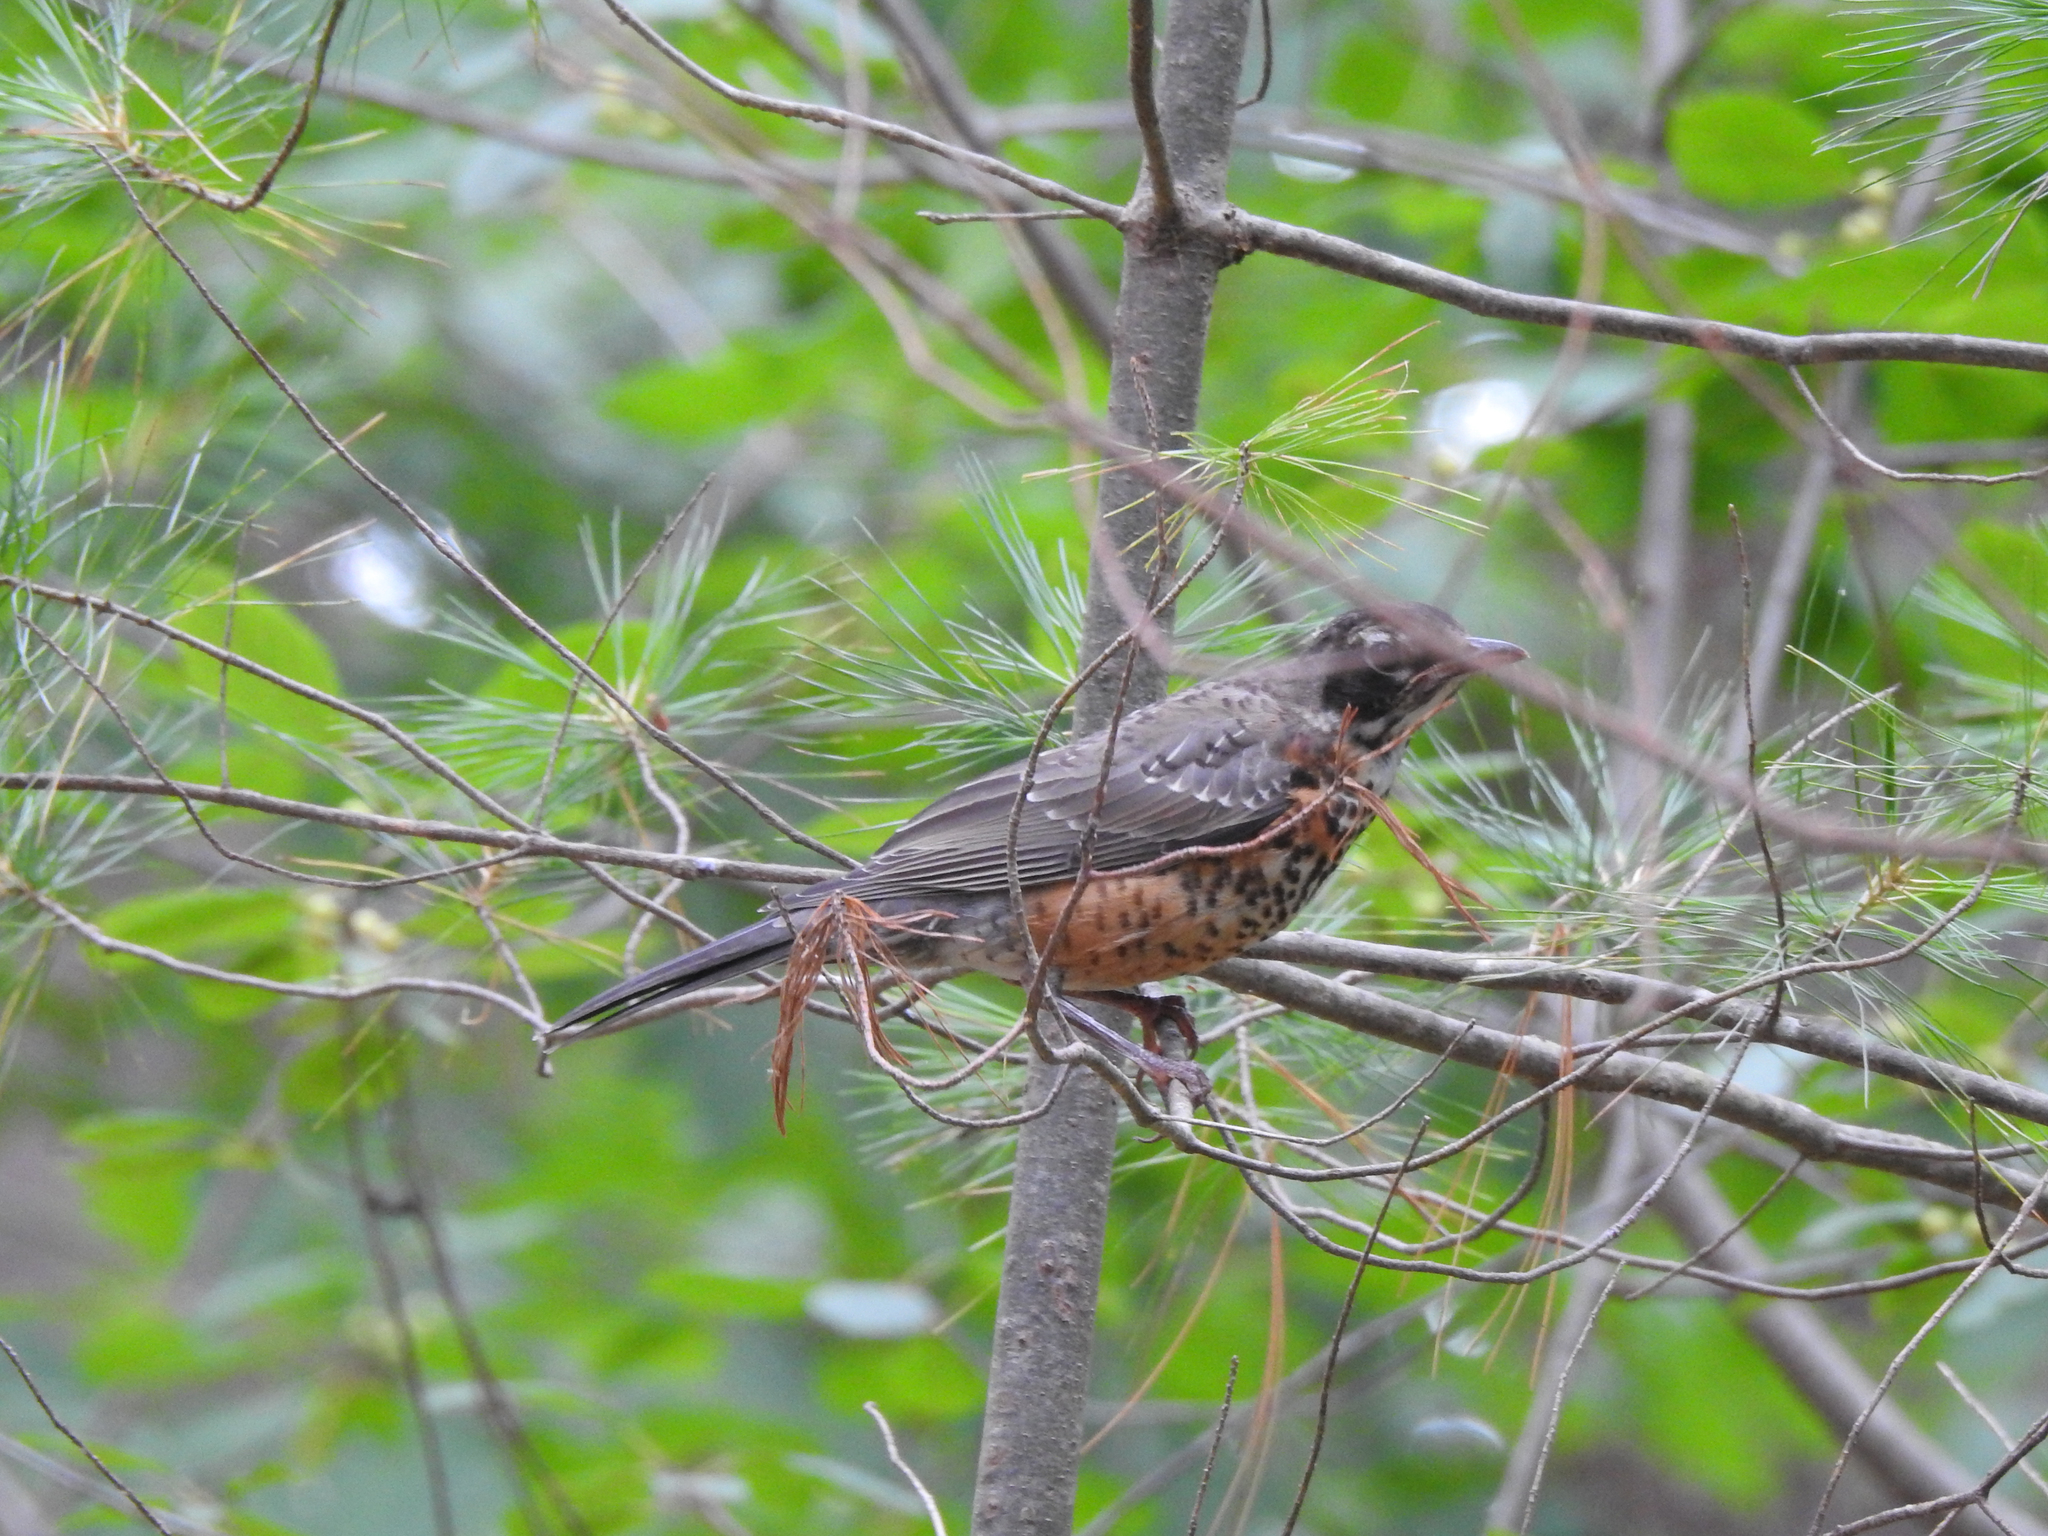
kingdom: Animalia
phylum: Chordata
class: Aves
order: Passeriformes
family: Turdidae
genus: Turdus
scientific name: Turdus migratorius
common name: American robin
